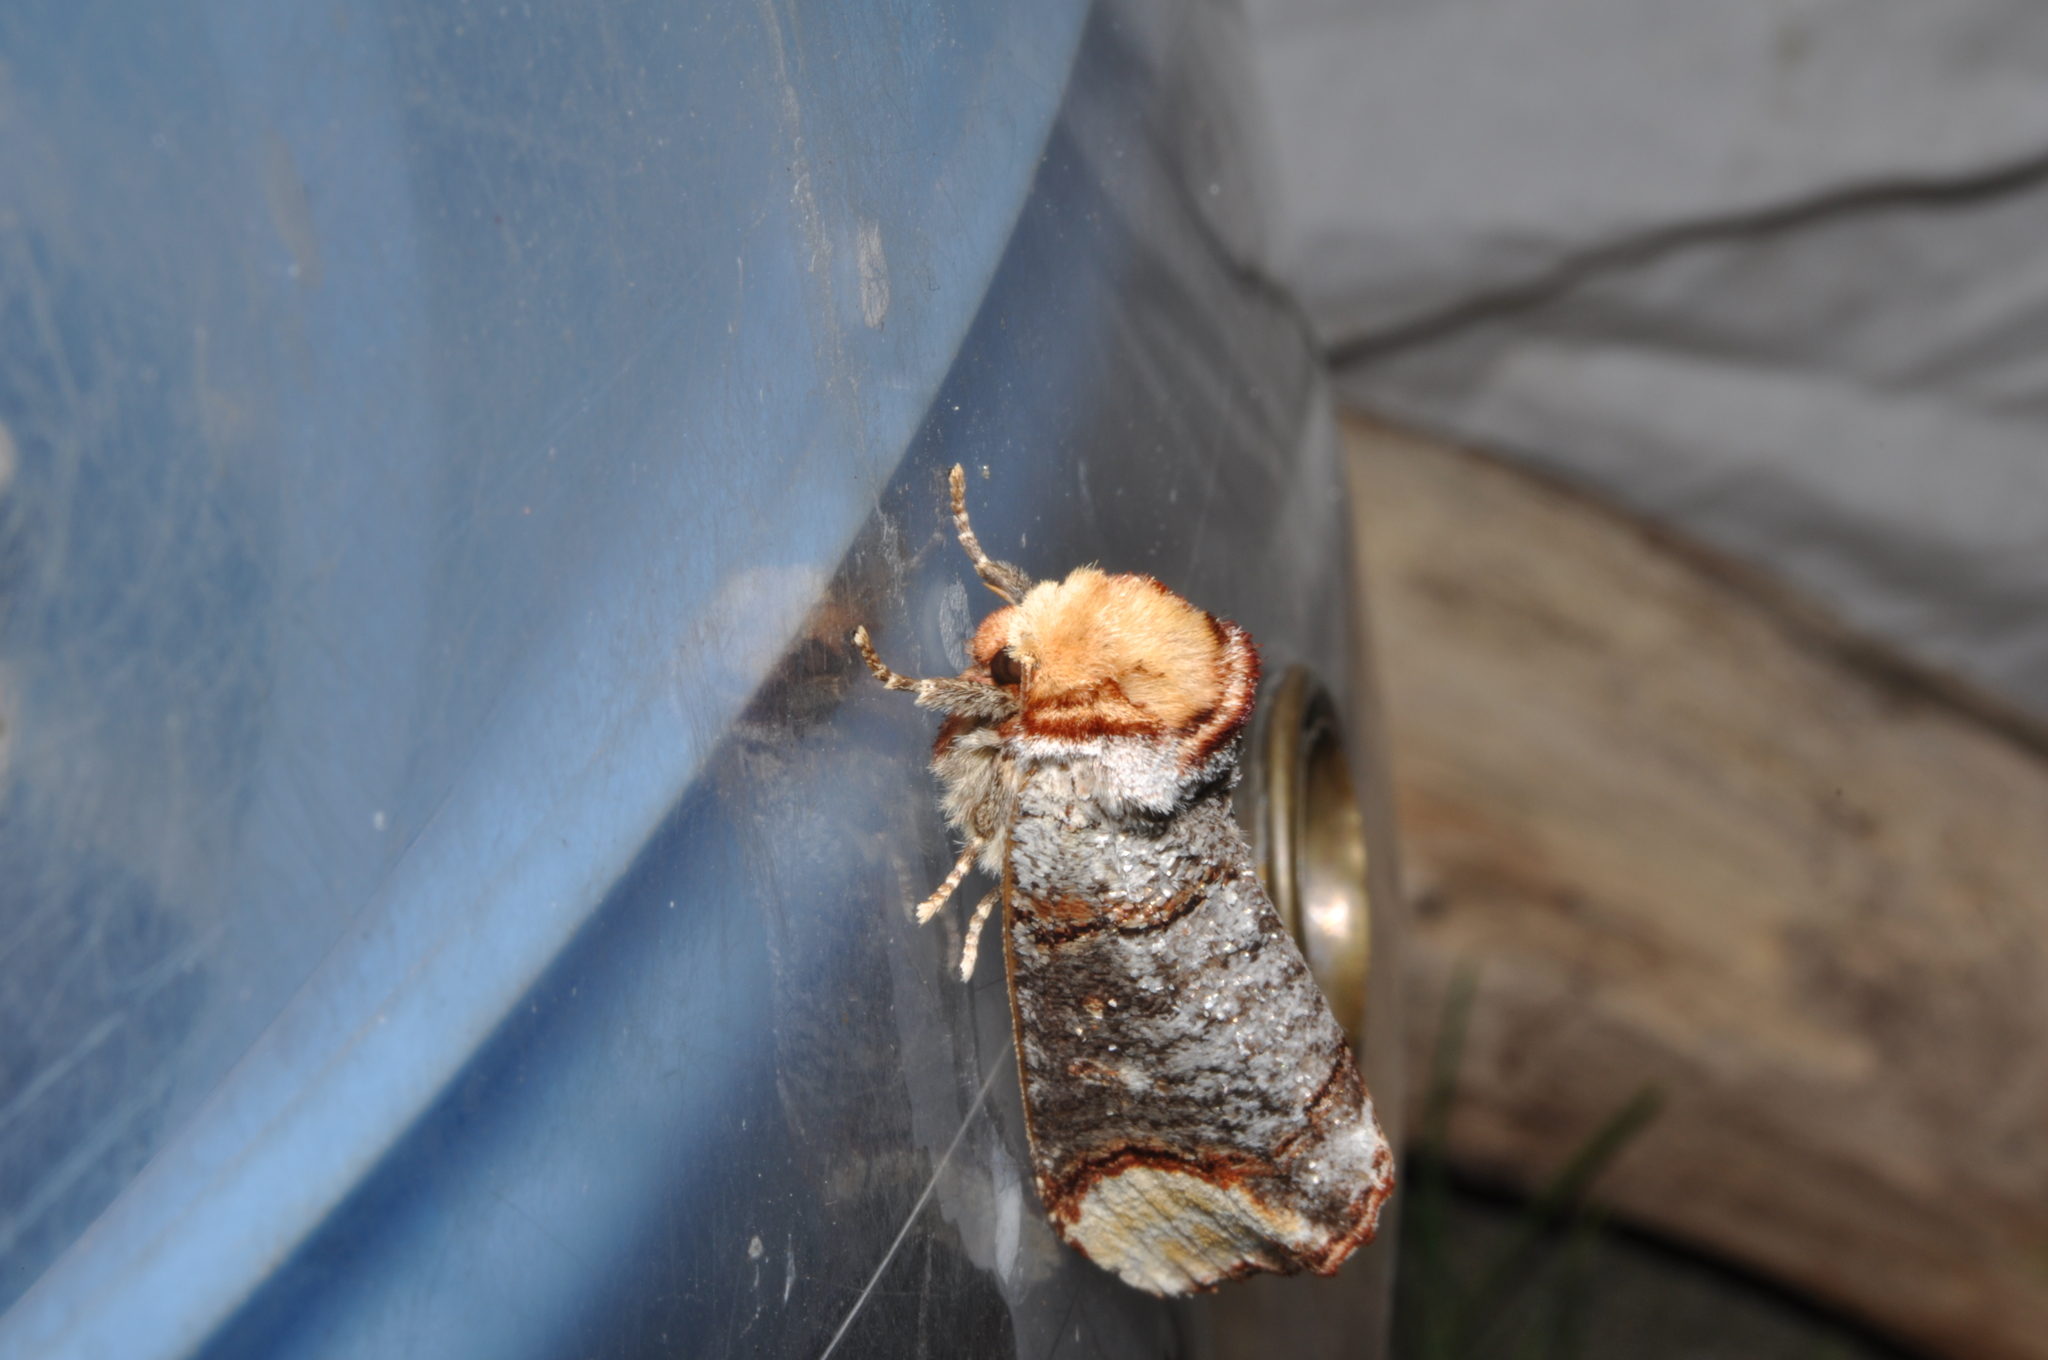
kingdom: Animalia
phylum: Arthropoda
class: Insecta
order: Lepidoptera
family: Notodontidae
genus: Phalera
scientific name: Phalera bucephala
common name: Buff-tip
